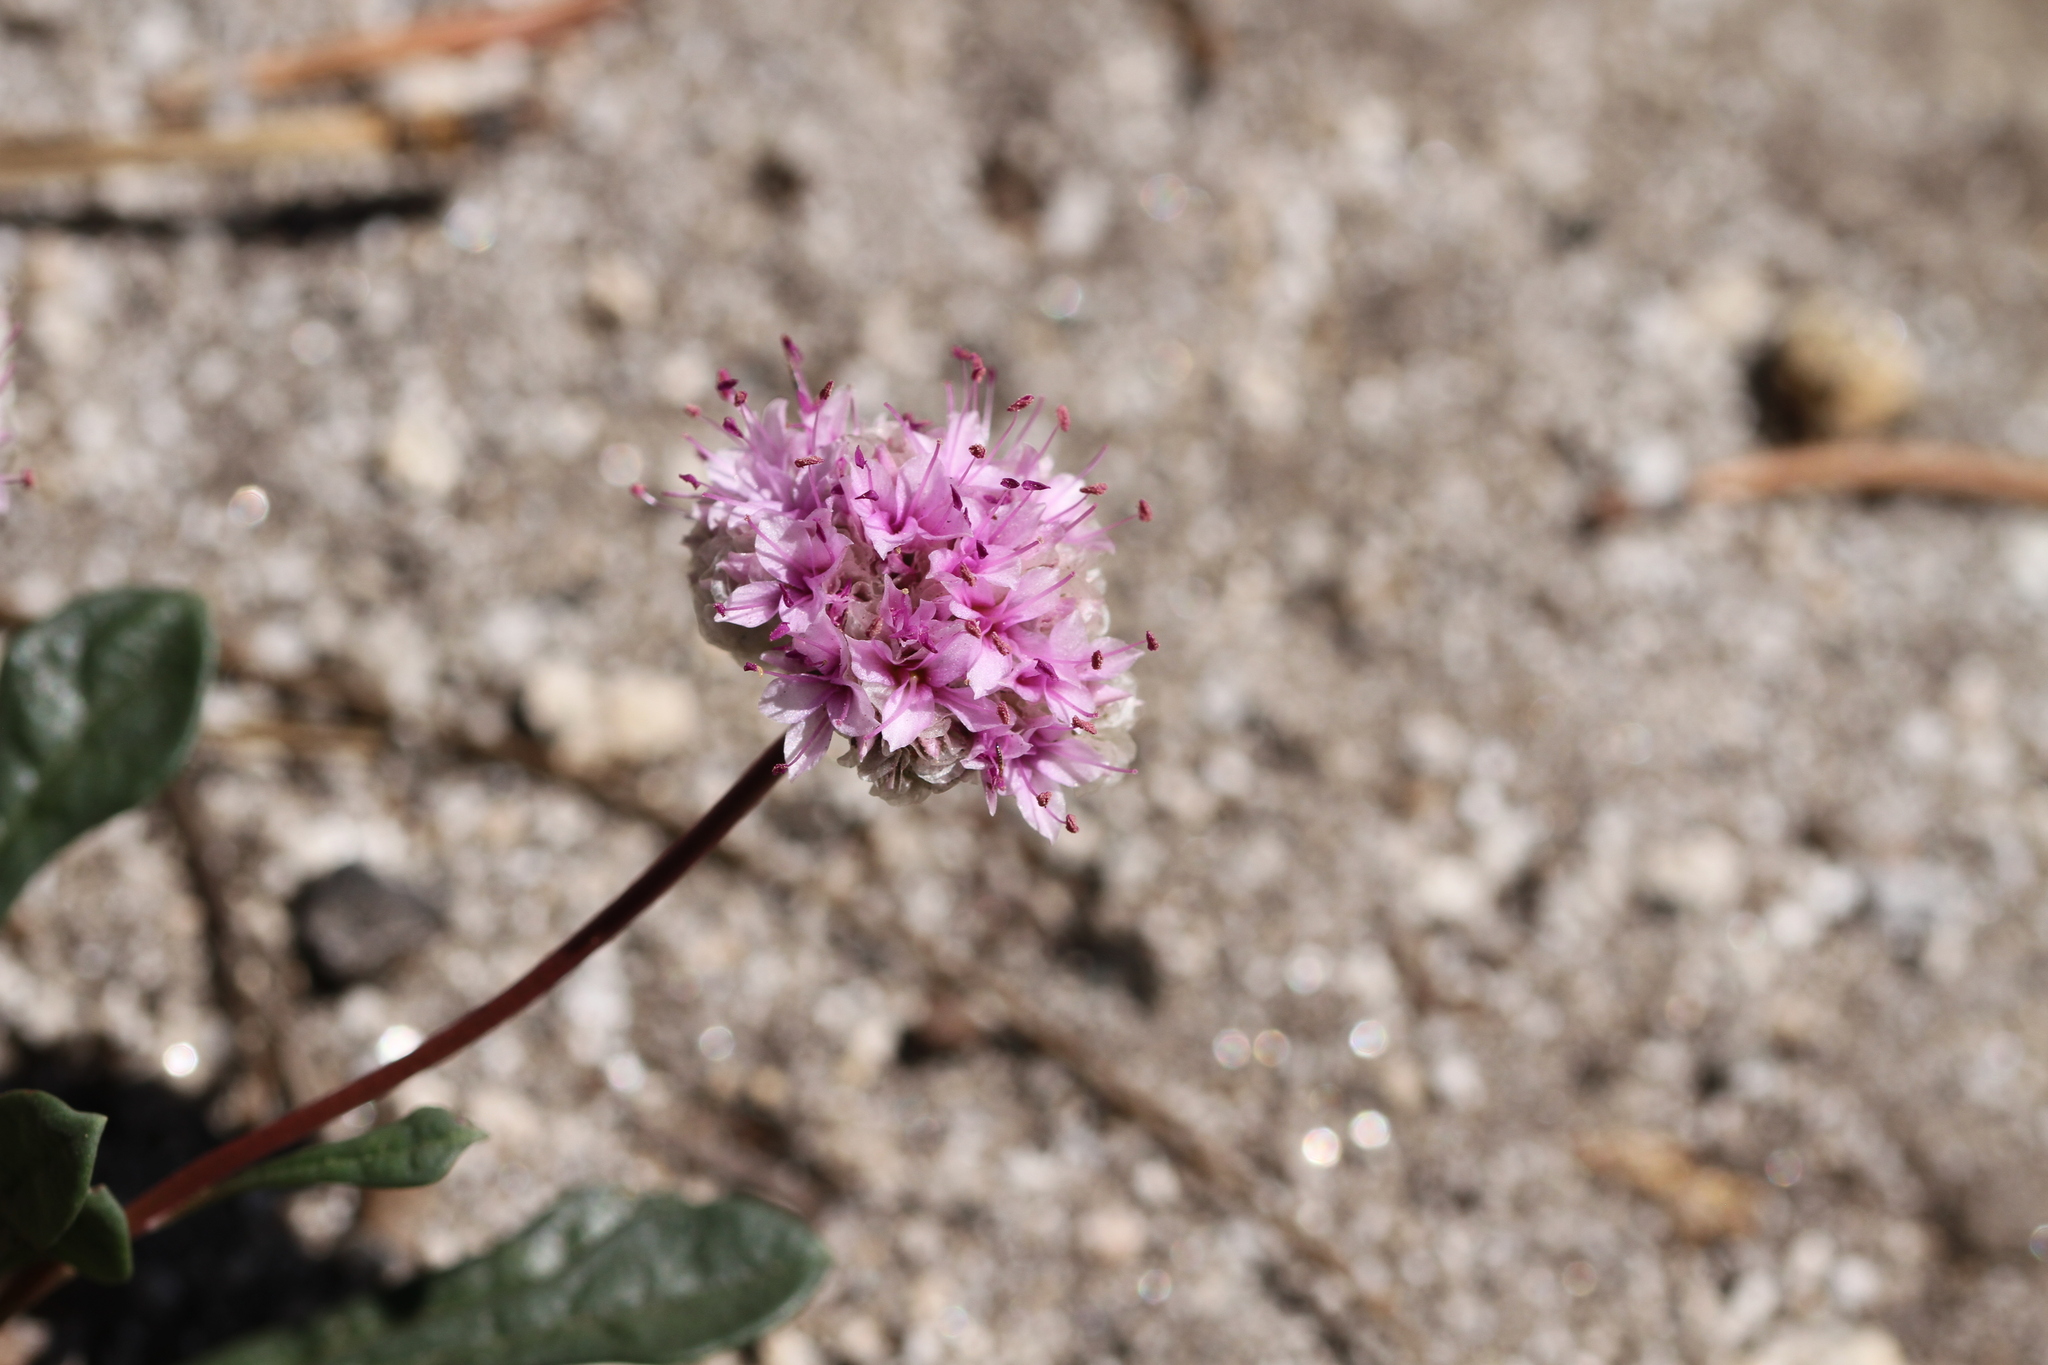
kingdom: Plantae
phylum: Tracheophyta
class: Magnoliopsida
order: Caryophyllales
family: Montiaceae
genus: Calyptridium
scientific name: Calyptridium monospermum
